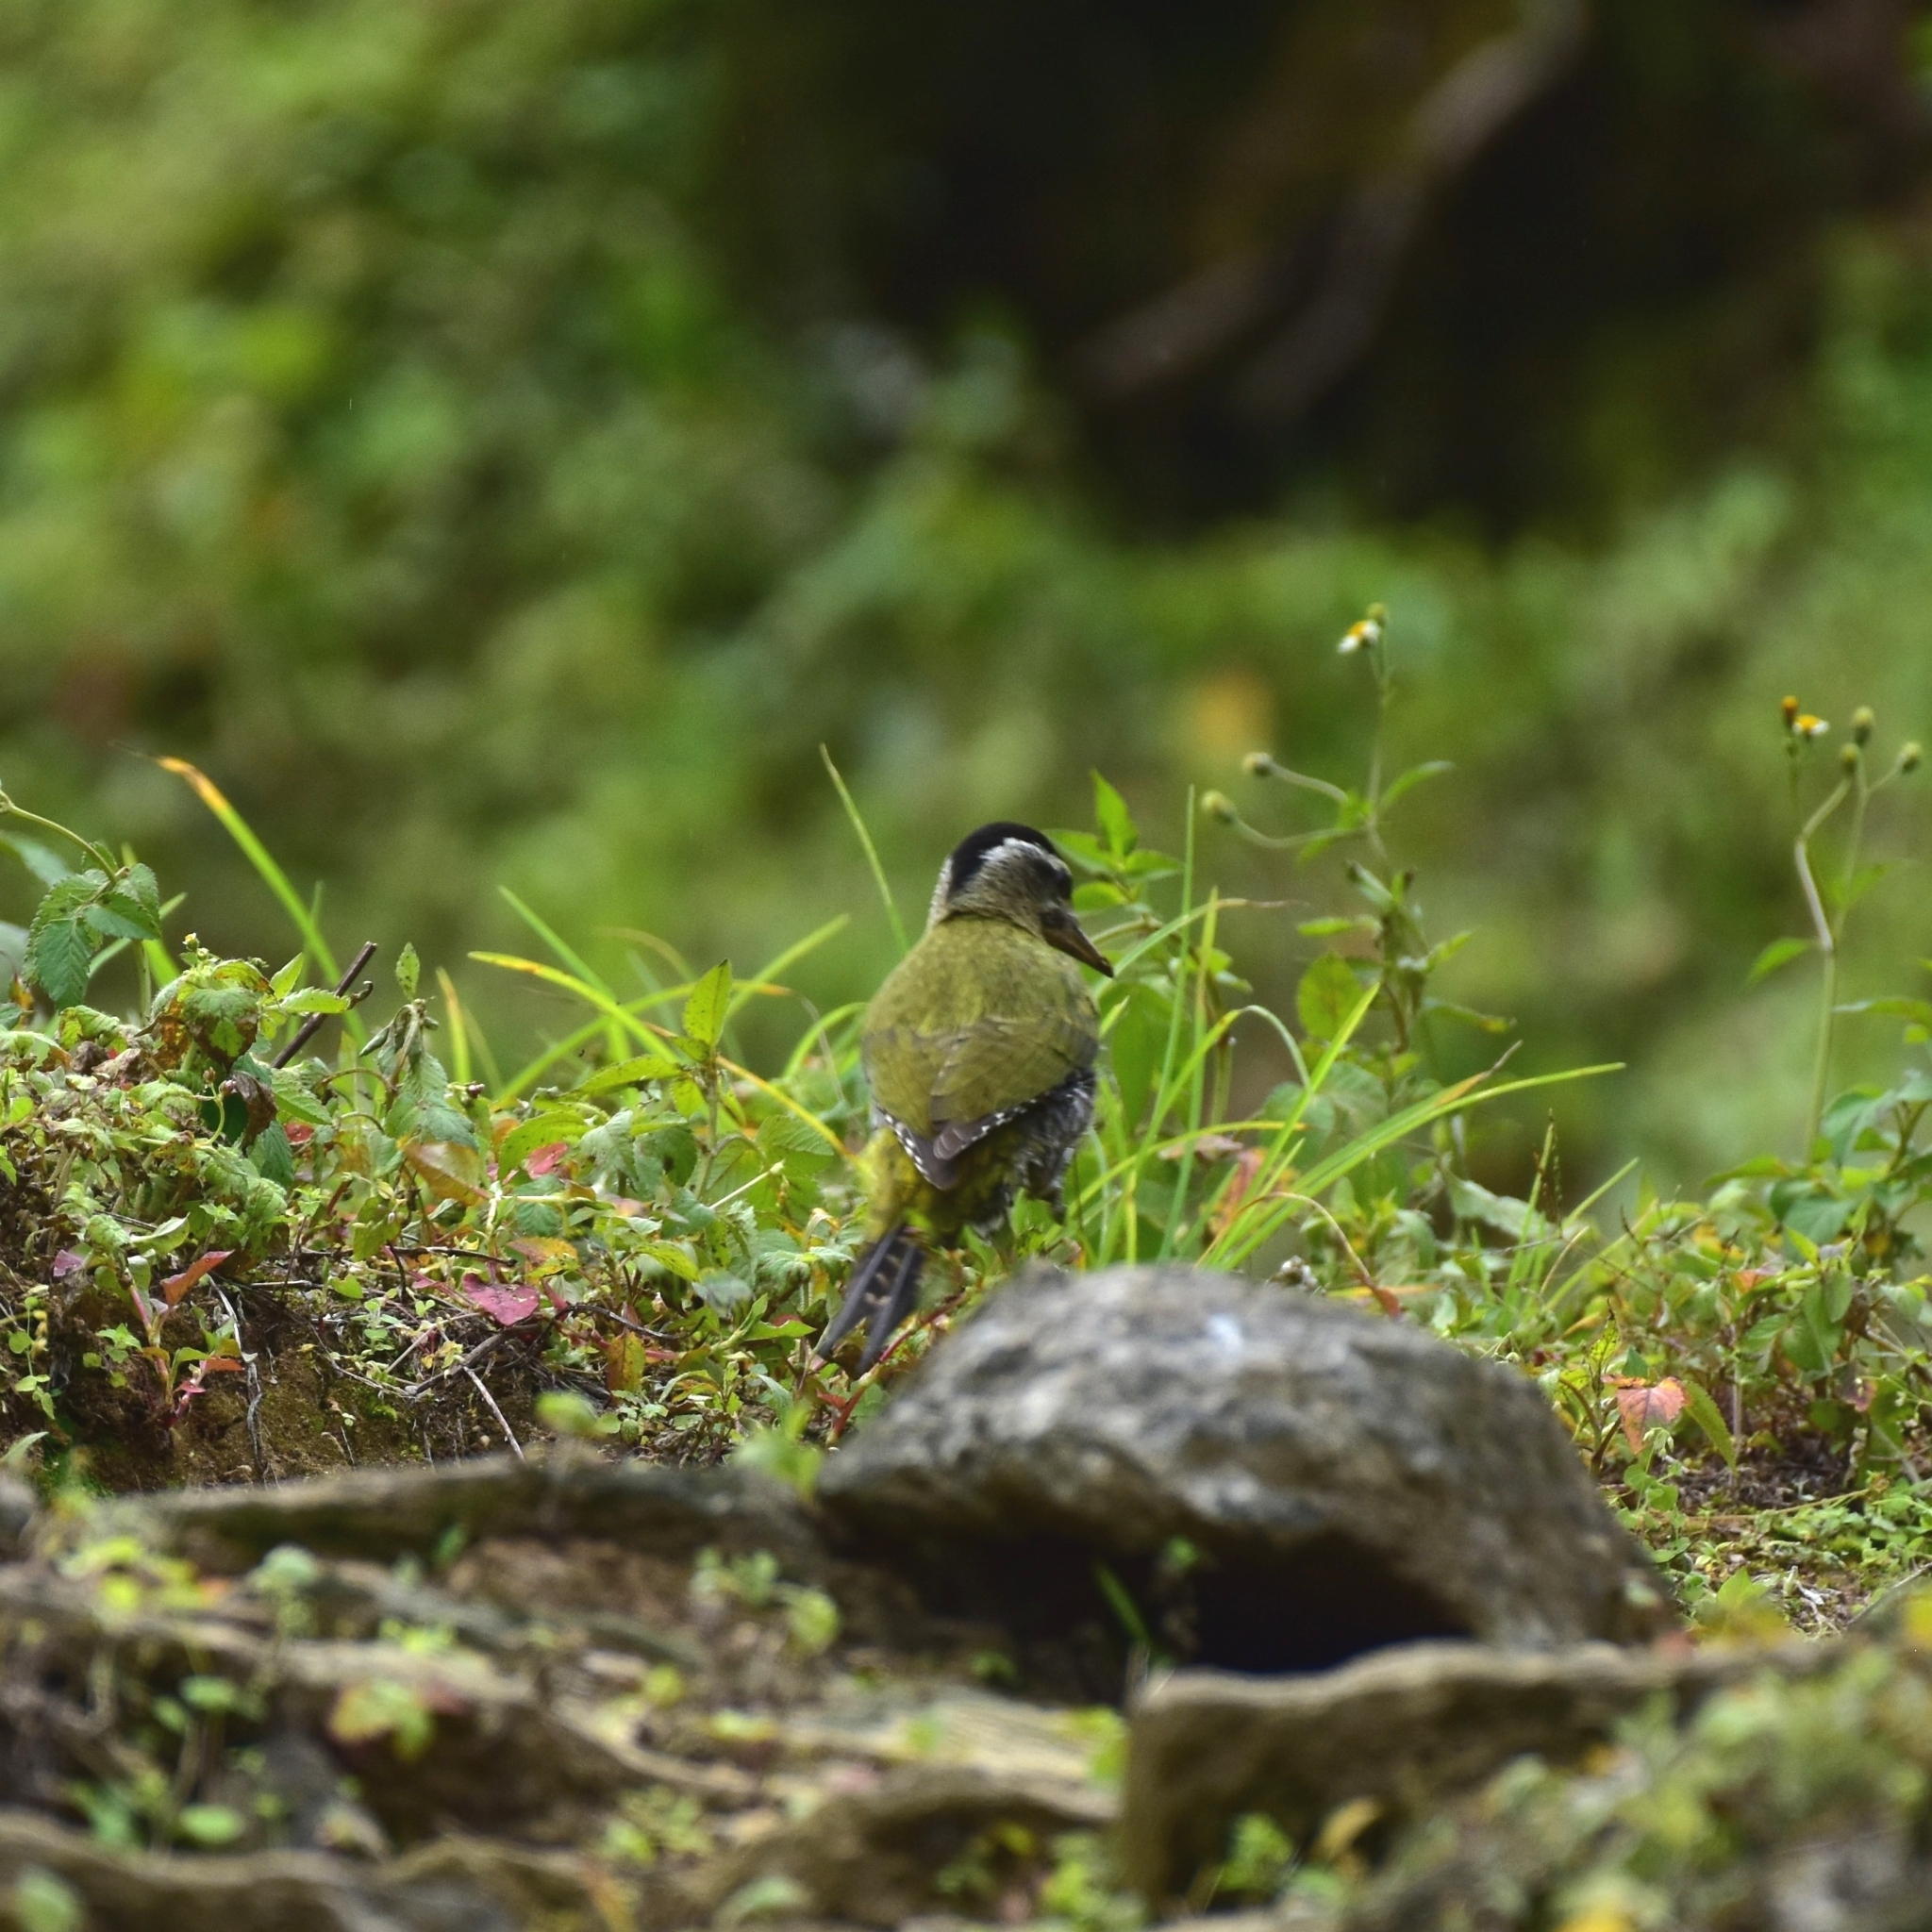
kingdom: Animalia
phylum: Chordata
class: Aves
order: Piciformes
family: Picidae
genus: Picus
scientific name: Picus xanthopygaeus
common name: Streak-throated woodpecker
